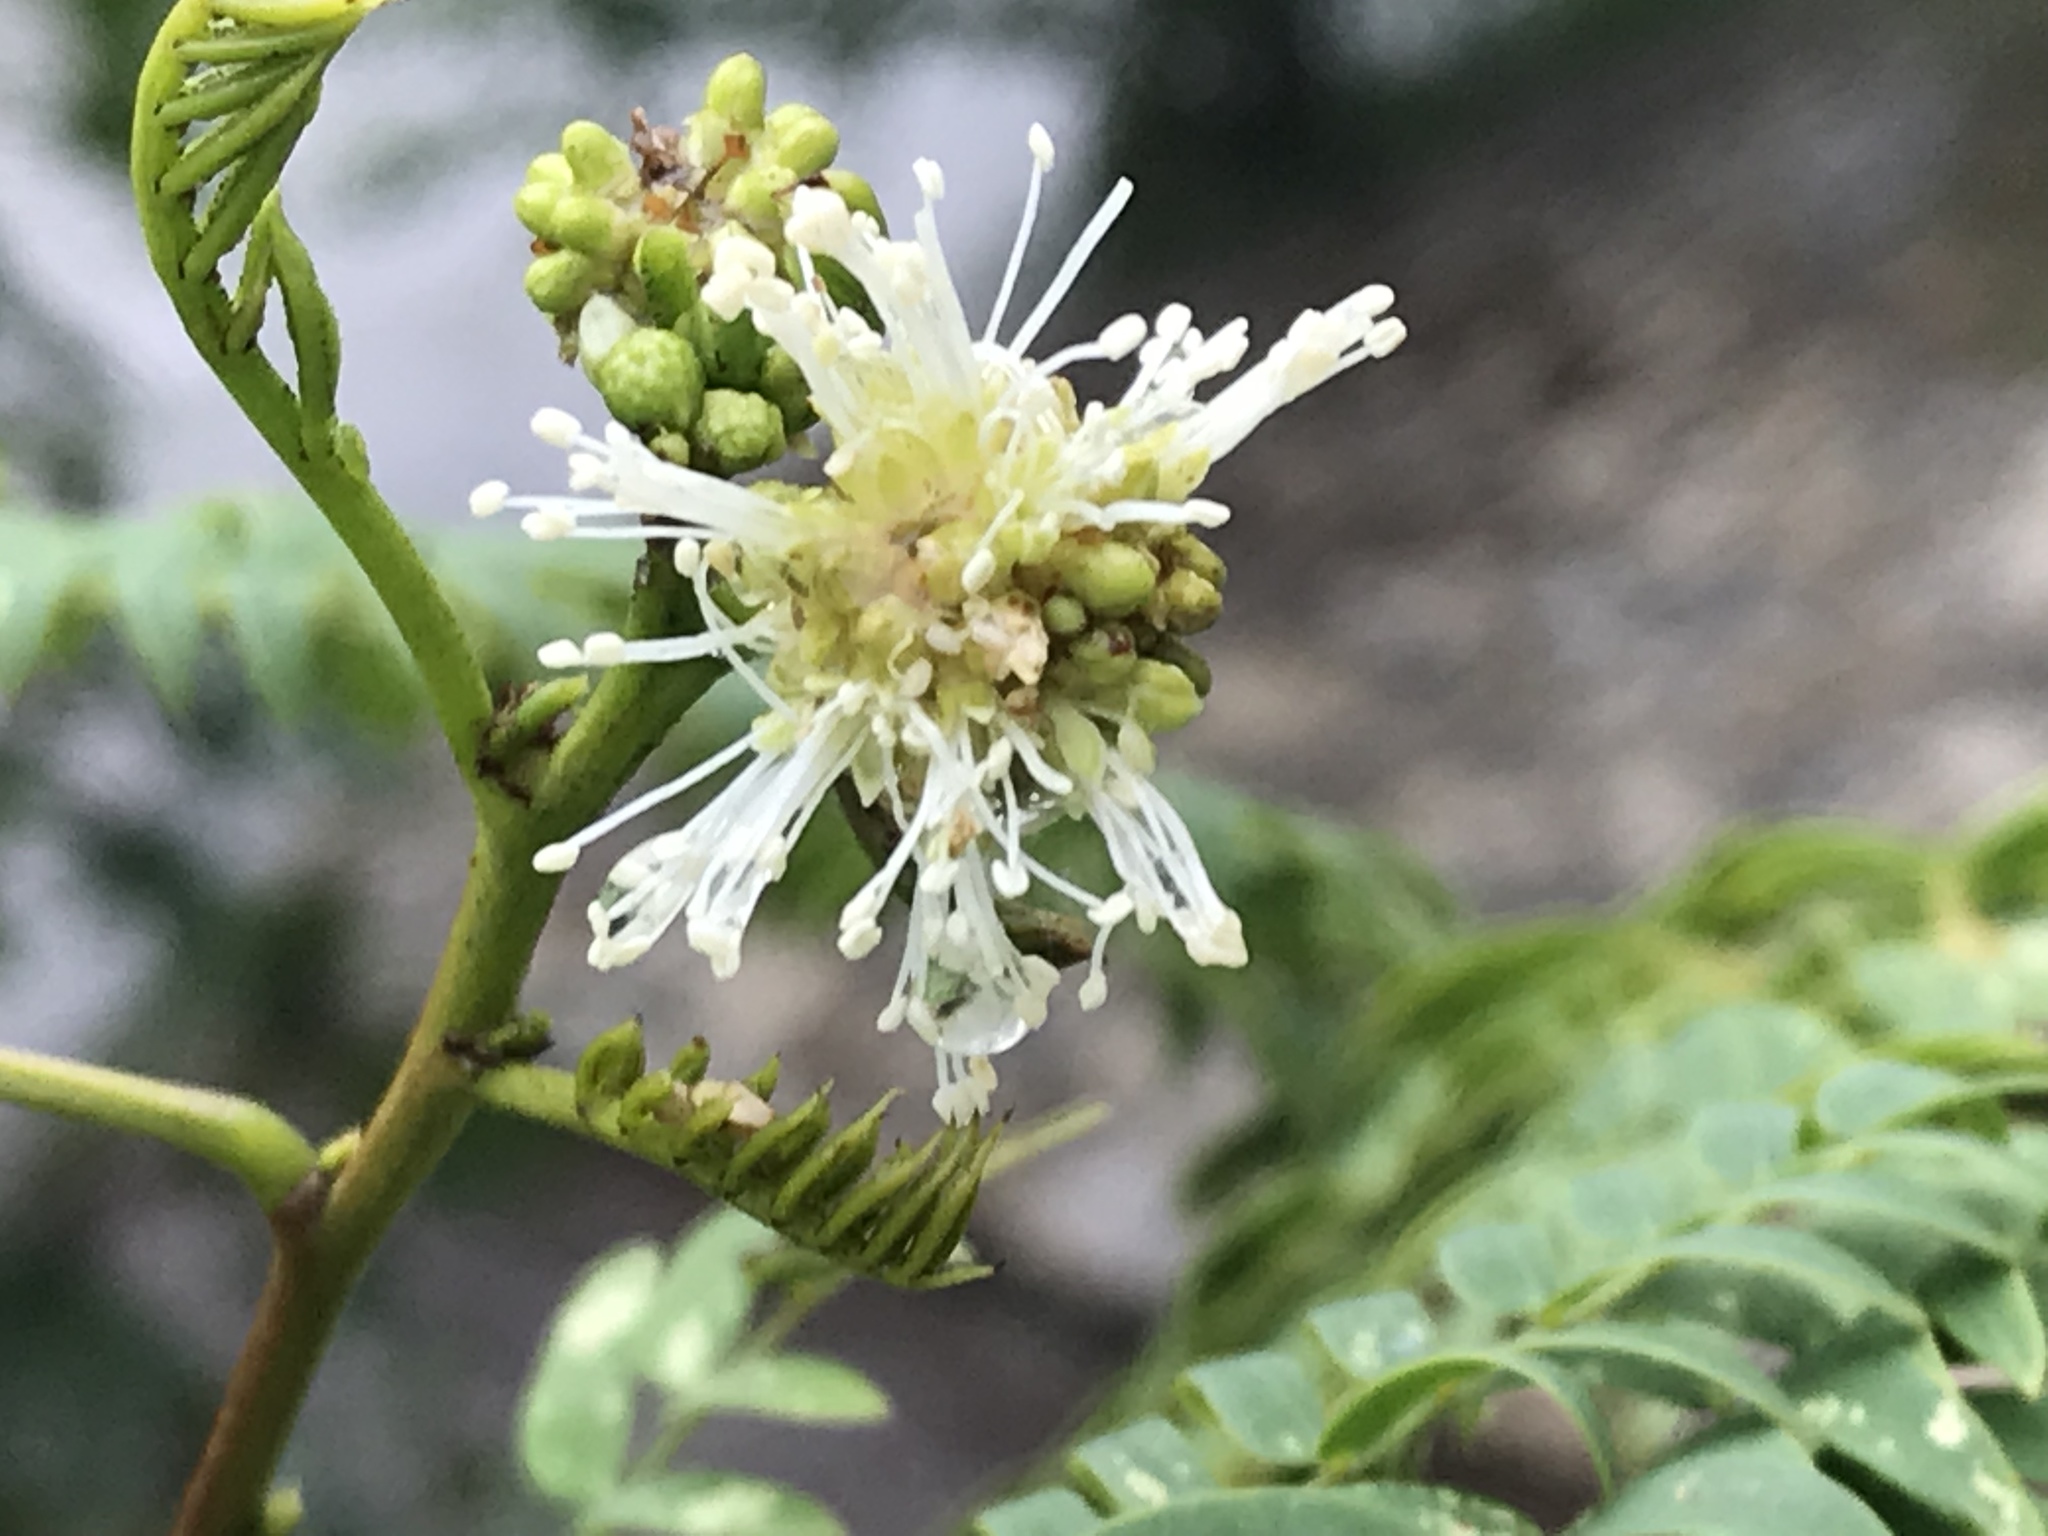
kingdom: Plantae
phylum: Tracheophyta
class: Magnoliopsida
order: Fabales
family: Fabaceae
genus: Leucaena
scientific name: Leucaena leucocephala
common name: White leadtree
